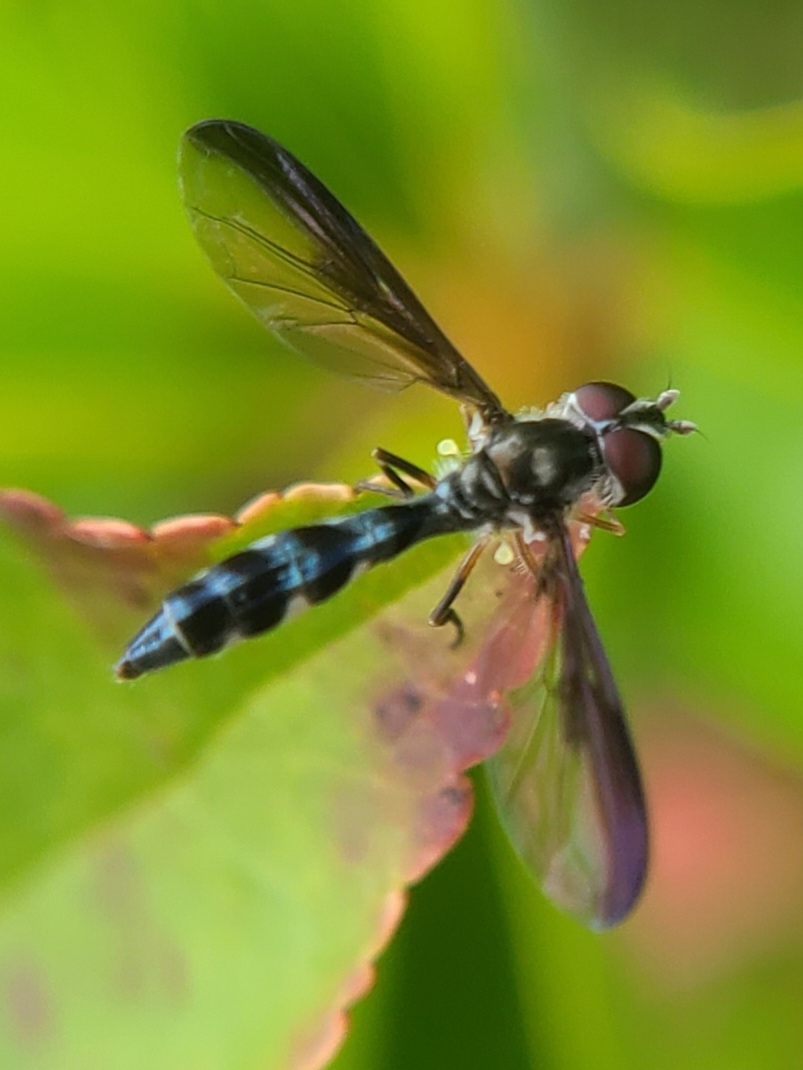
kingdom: Animalia
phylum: Arthropoda
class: Insecta
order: Diptera
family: Syrphidae
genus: Ocyptamus
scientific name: Ocyptamus costatus
